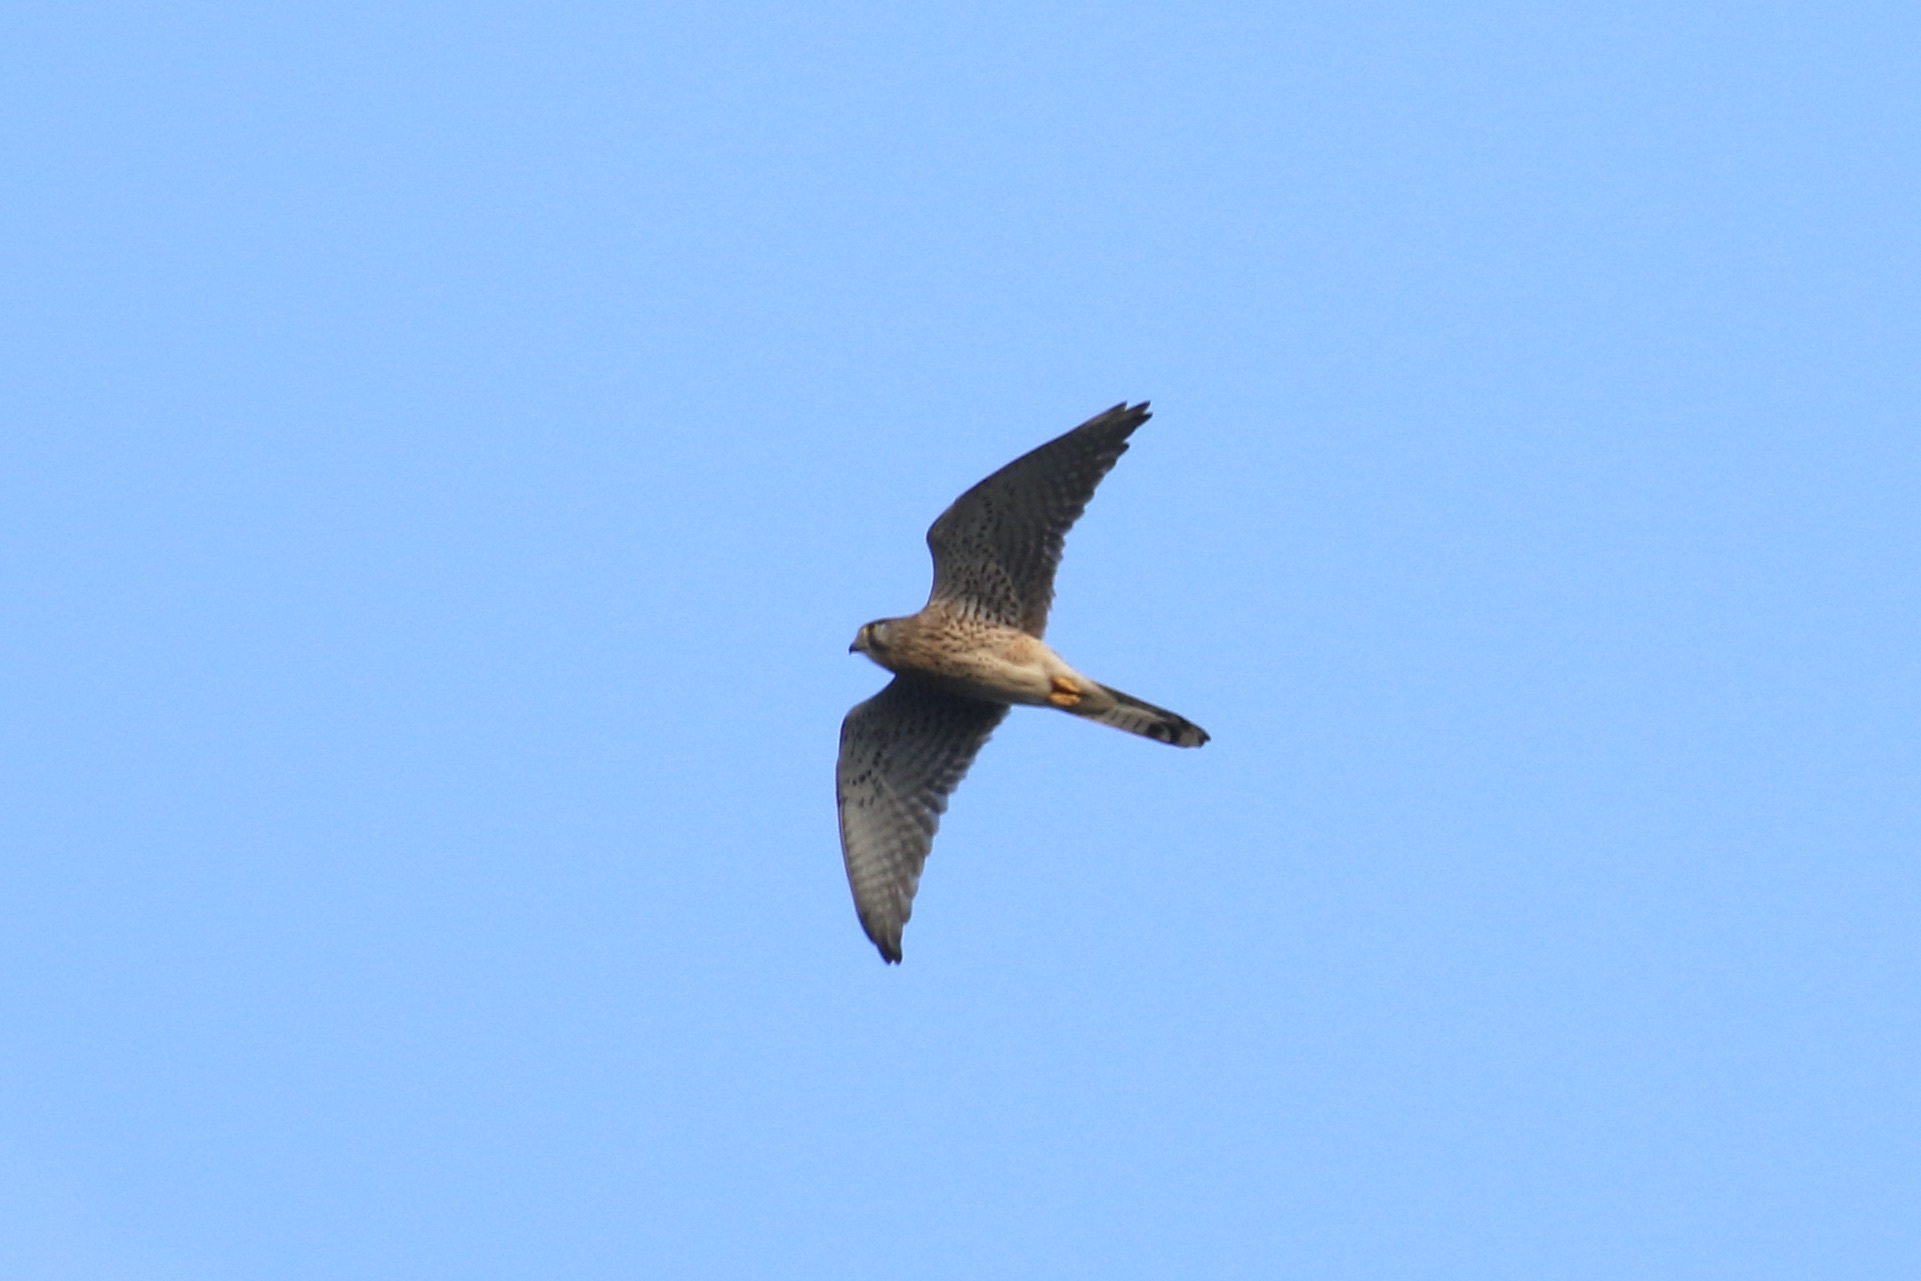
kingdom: Animalia
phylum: Chordata
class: Aves
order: Falconiformes
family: Falconidae
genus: Falco
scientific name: Falco tinnunculus
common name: Common kestrel
